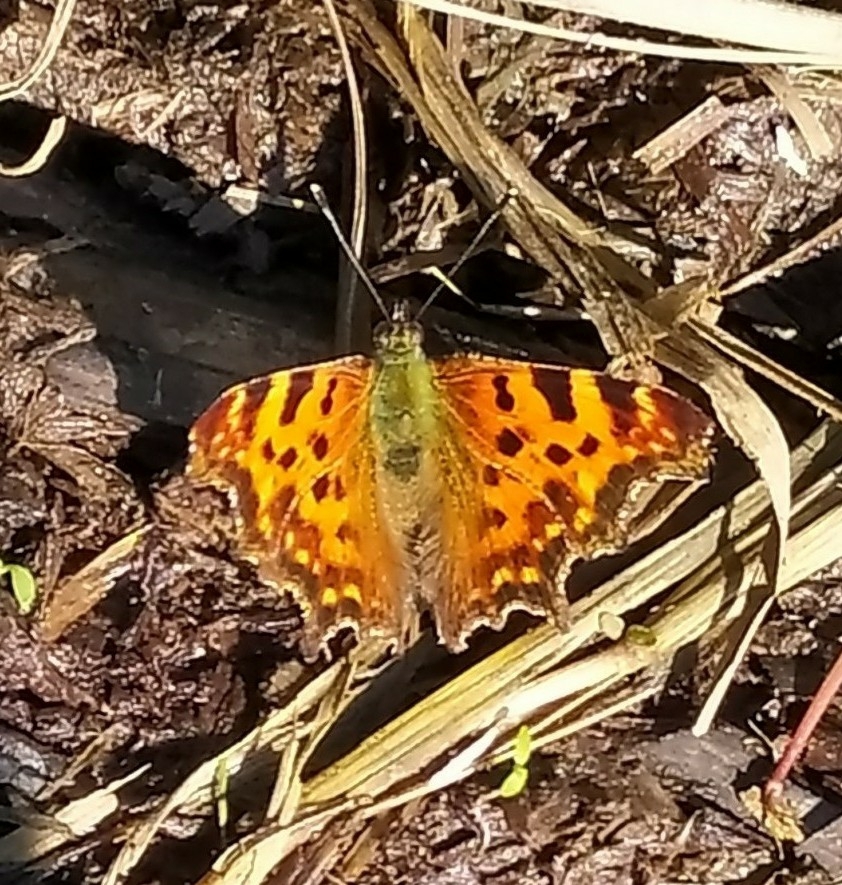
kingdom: Animalia
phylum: Arthropoda
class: Insecta
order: Lepidoptera
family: Nymphalidae
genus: Polygonia
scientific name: Polygonia c-album
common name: Comma
